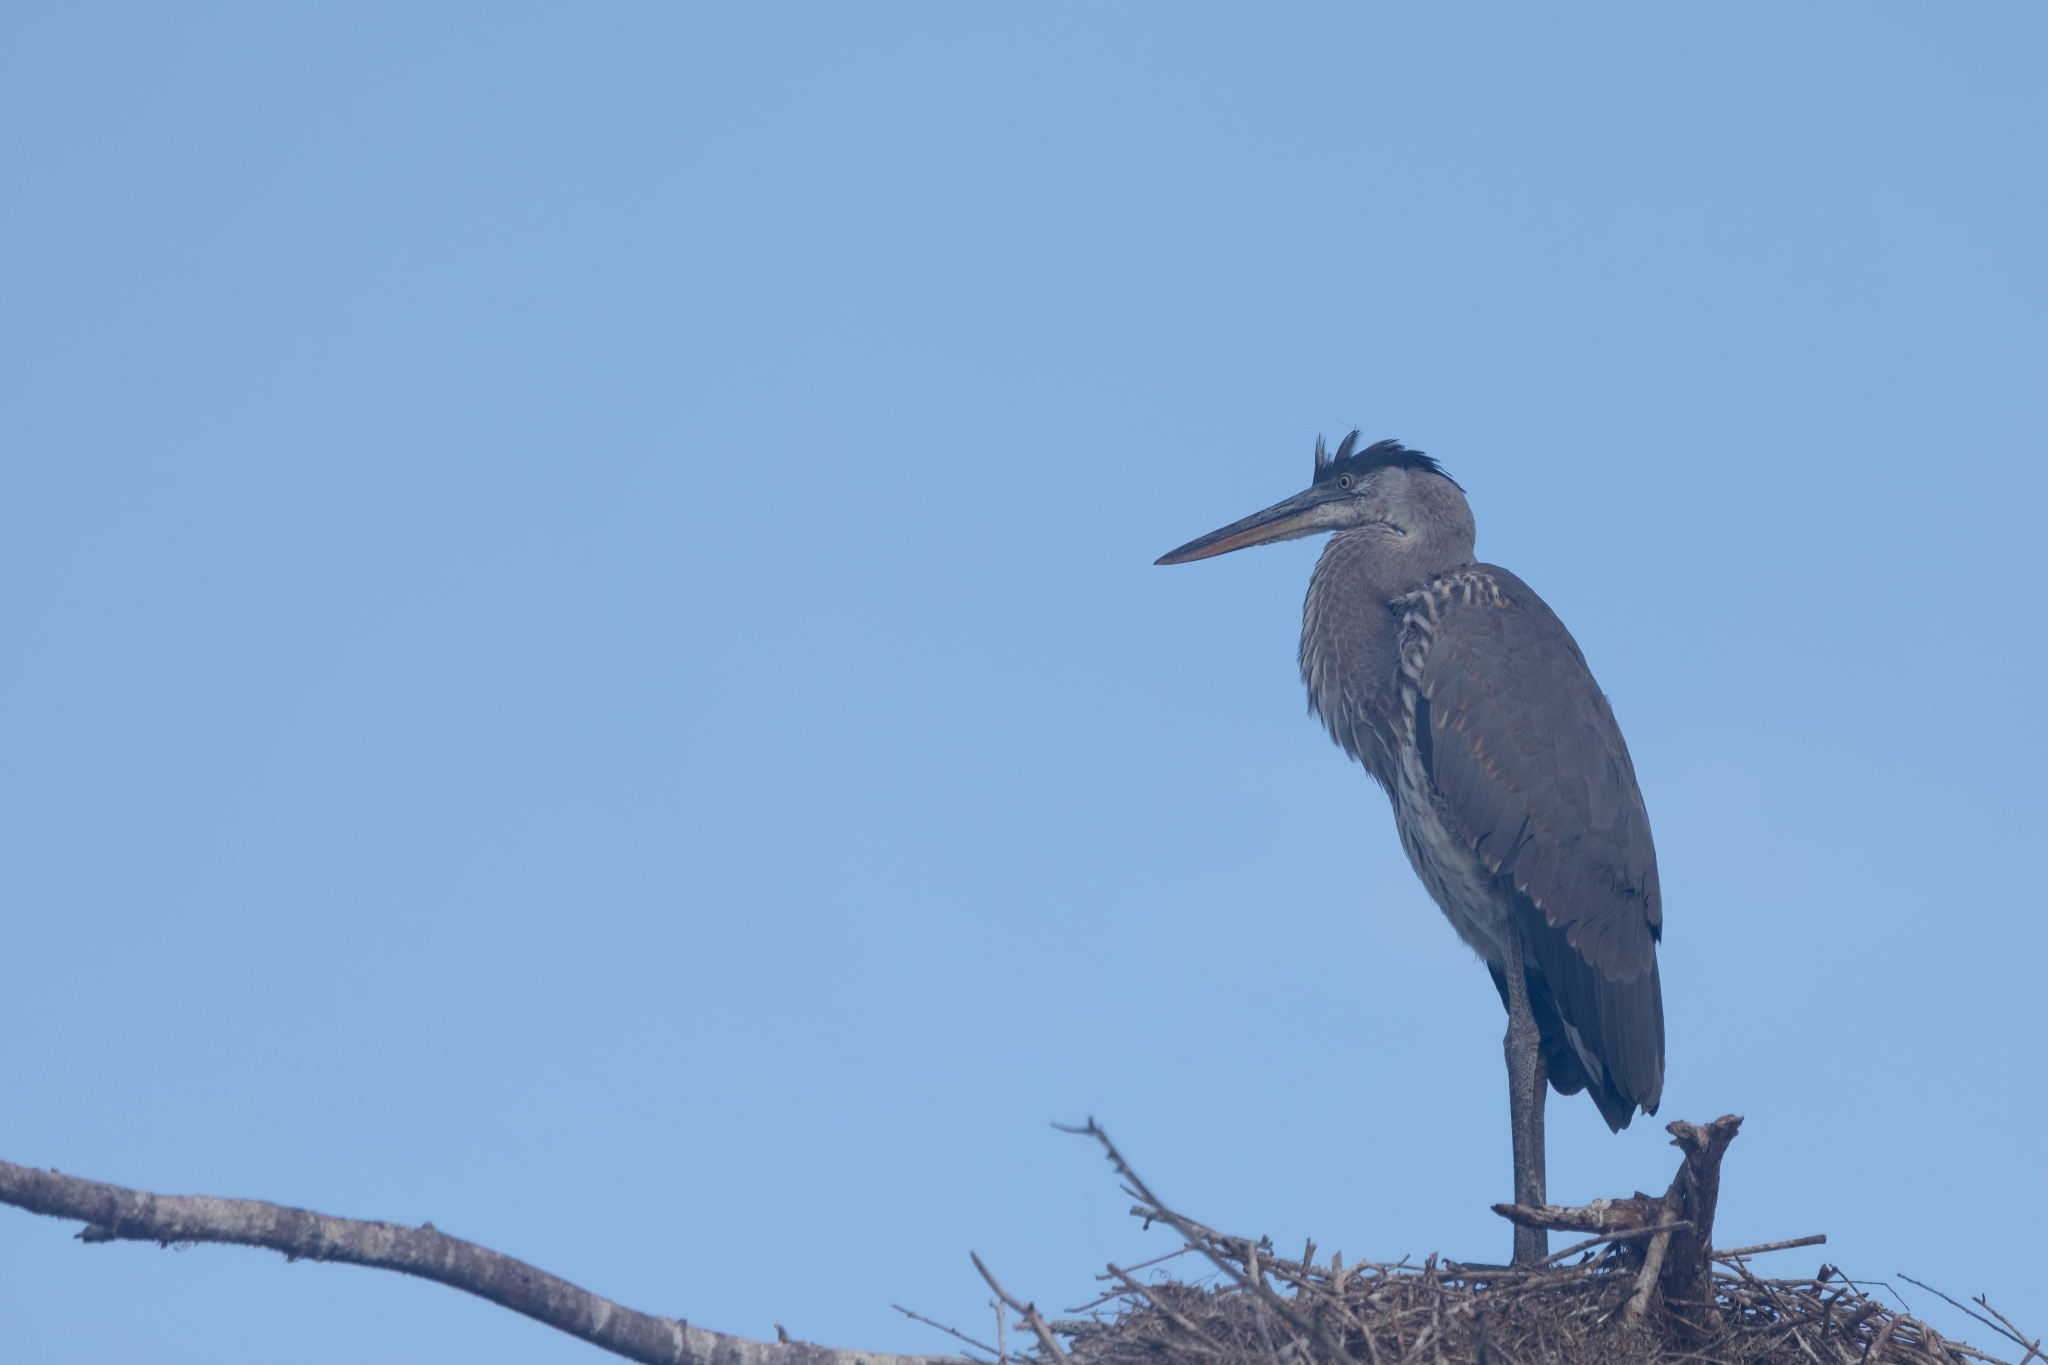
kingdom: Animalia
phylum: Chordata
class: Aves
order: Pelecaniformes
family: Ardeidae
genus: Ardea
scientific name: Ardea herodias
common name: Great blue heron
